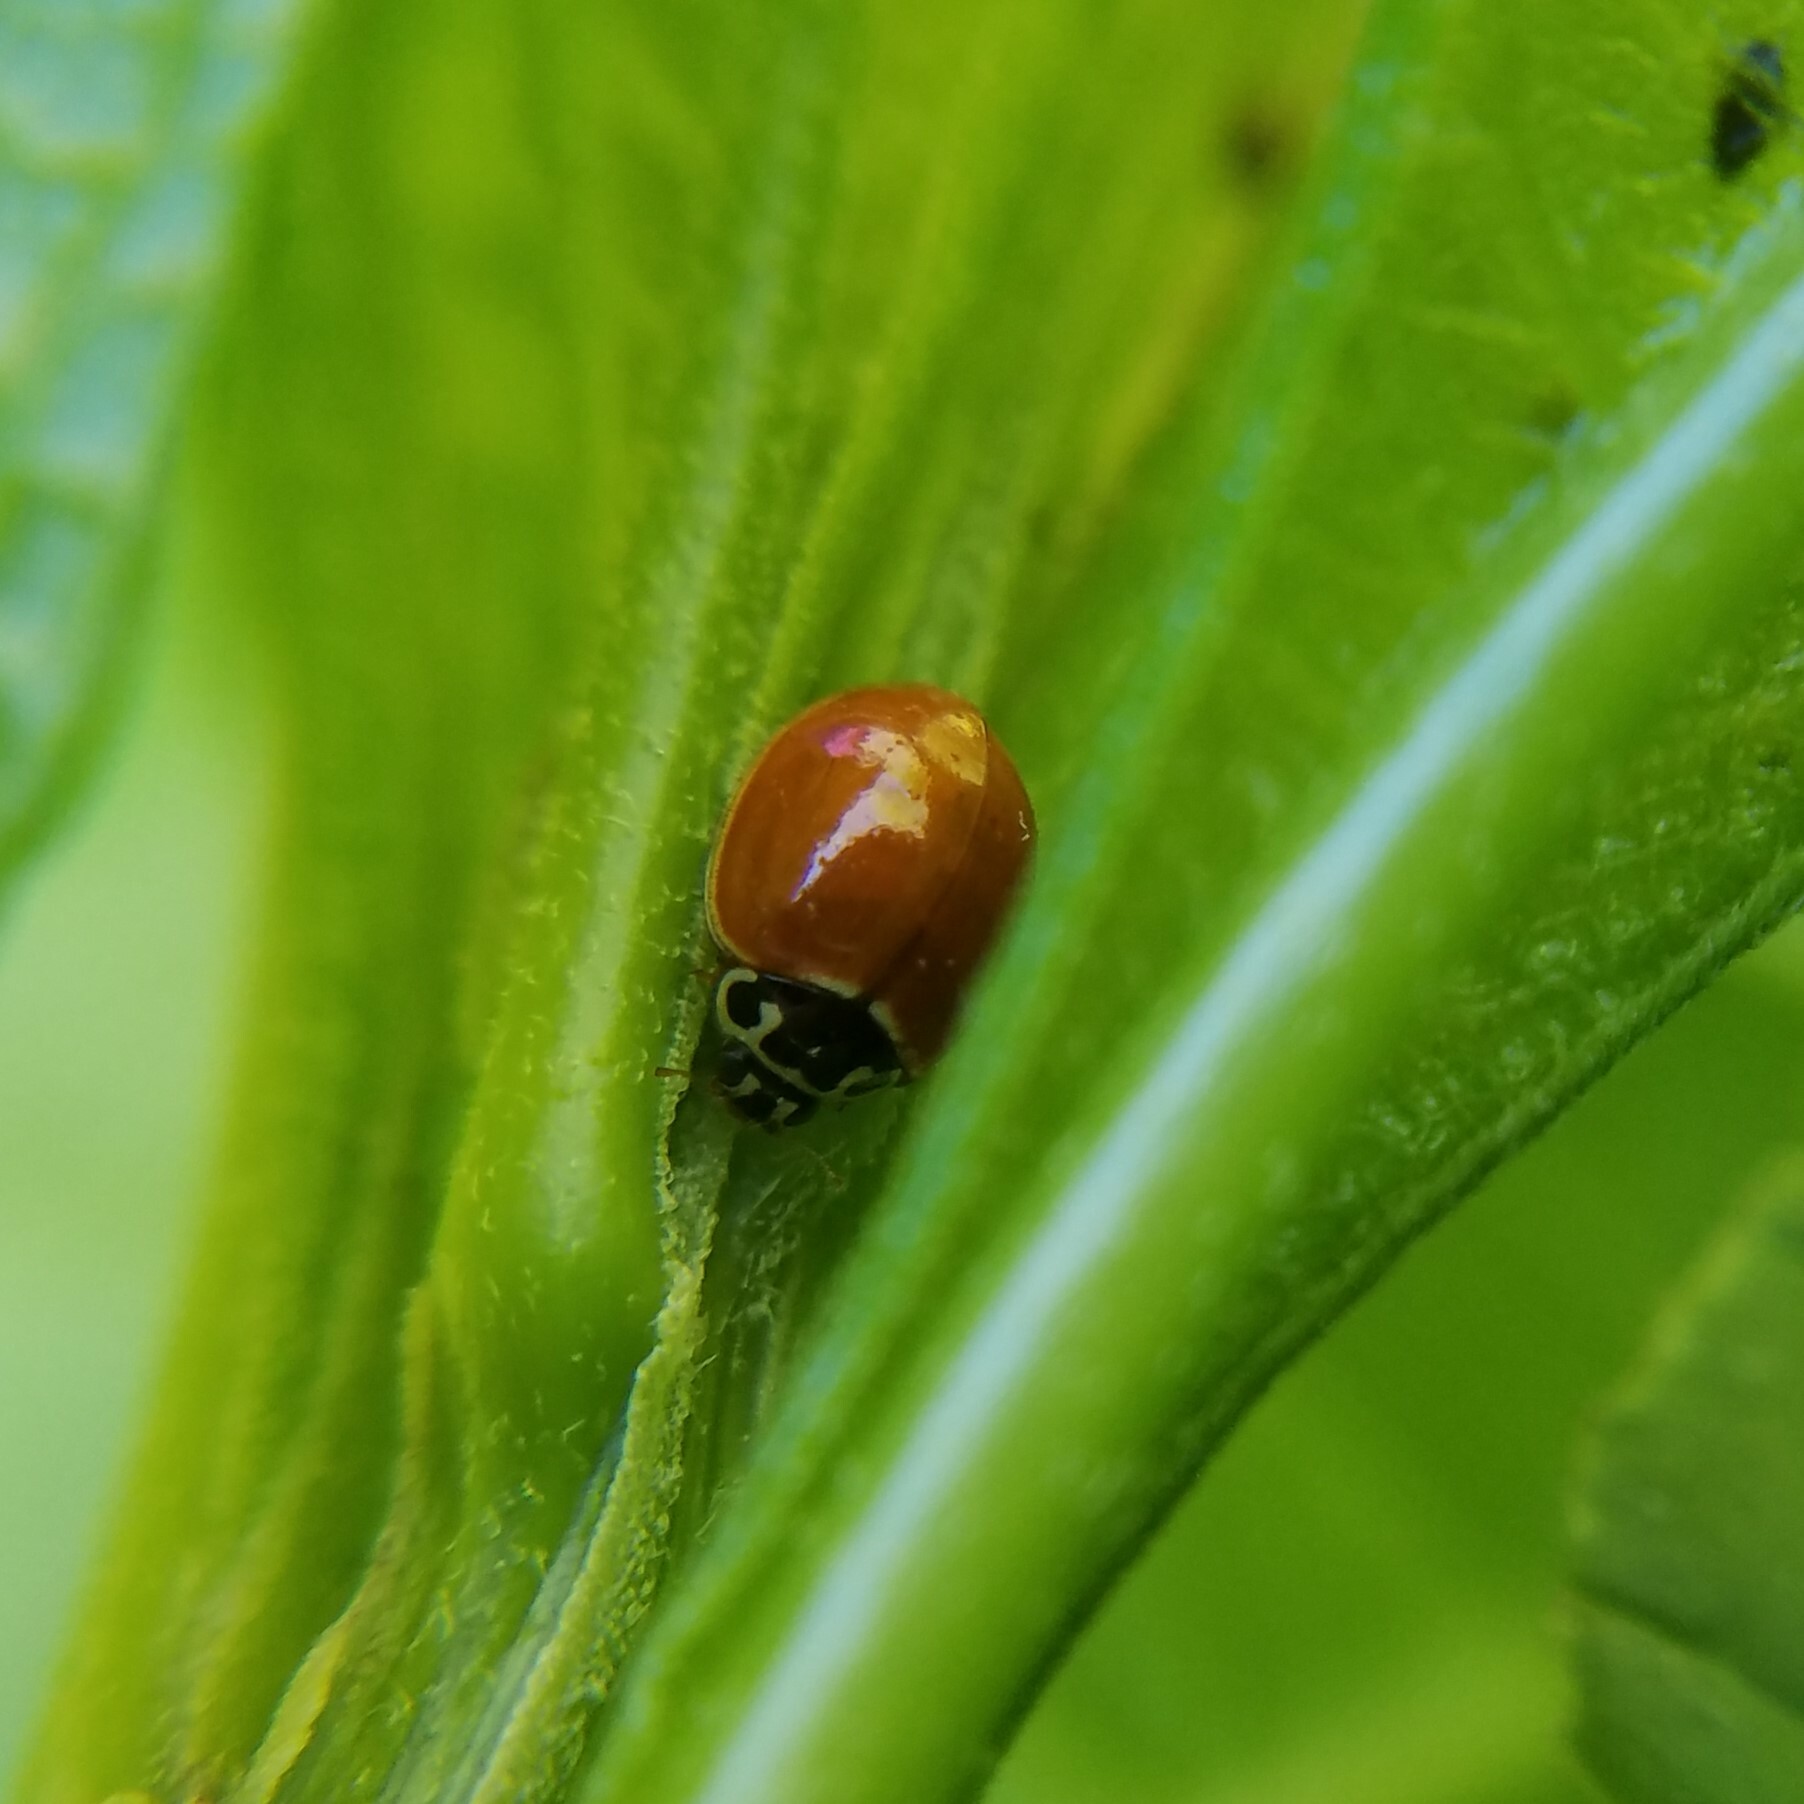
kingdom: Animalia
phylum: Arthropoda
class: Insecta
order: Coleoptera
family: Coccinellidae
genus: Cycloneda
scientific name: Cycloneda munda
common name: Polished lady beetle
